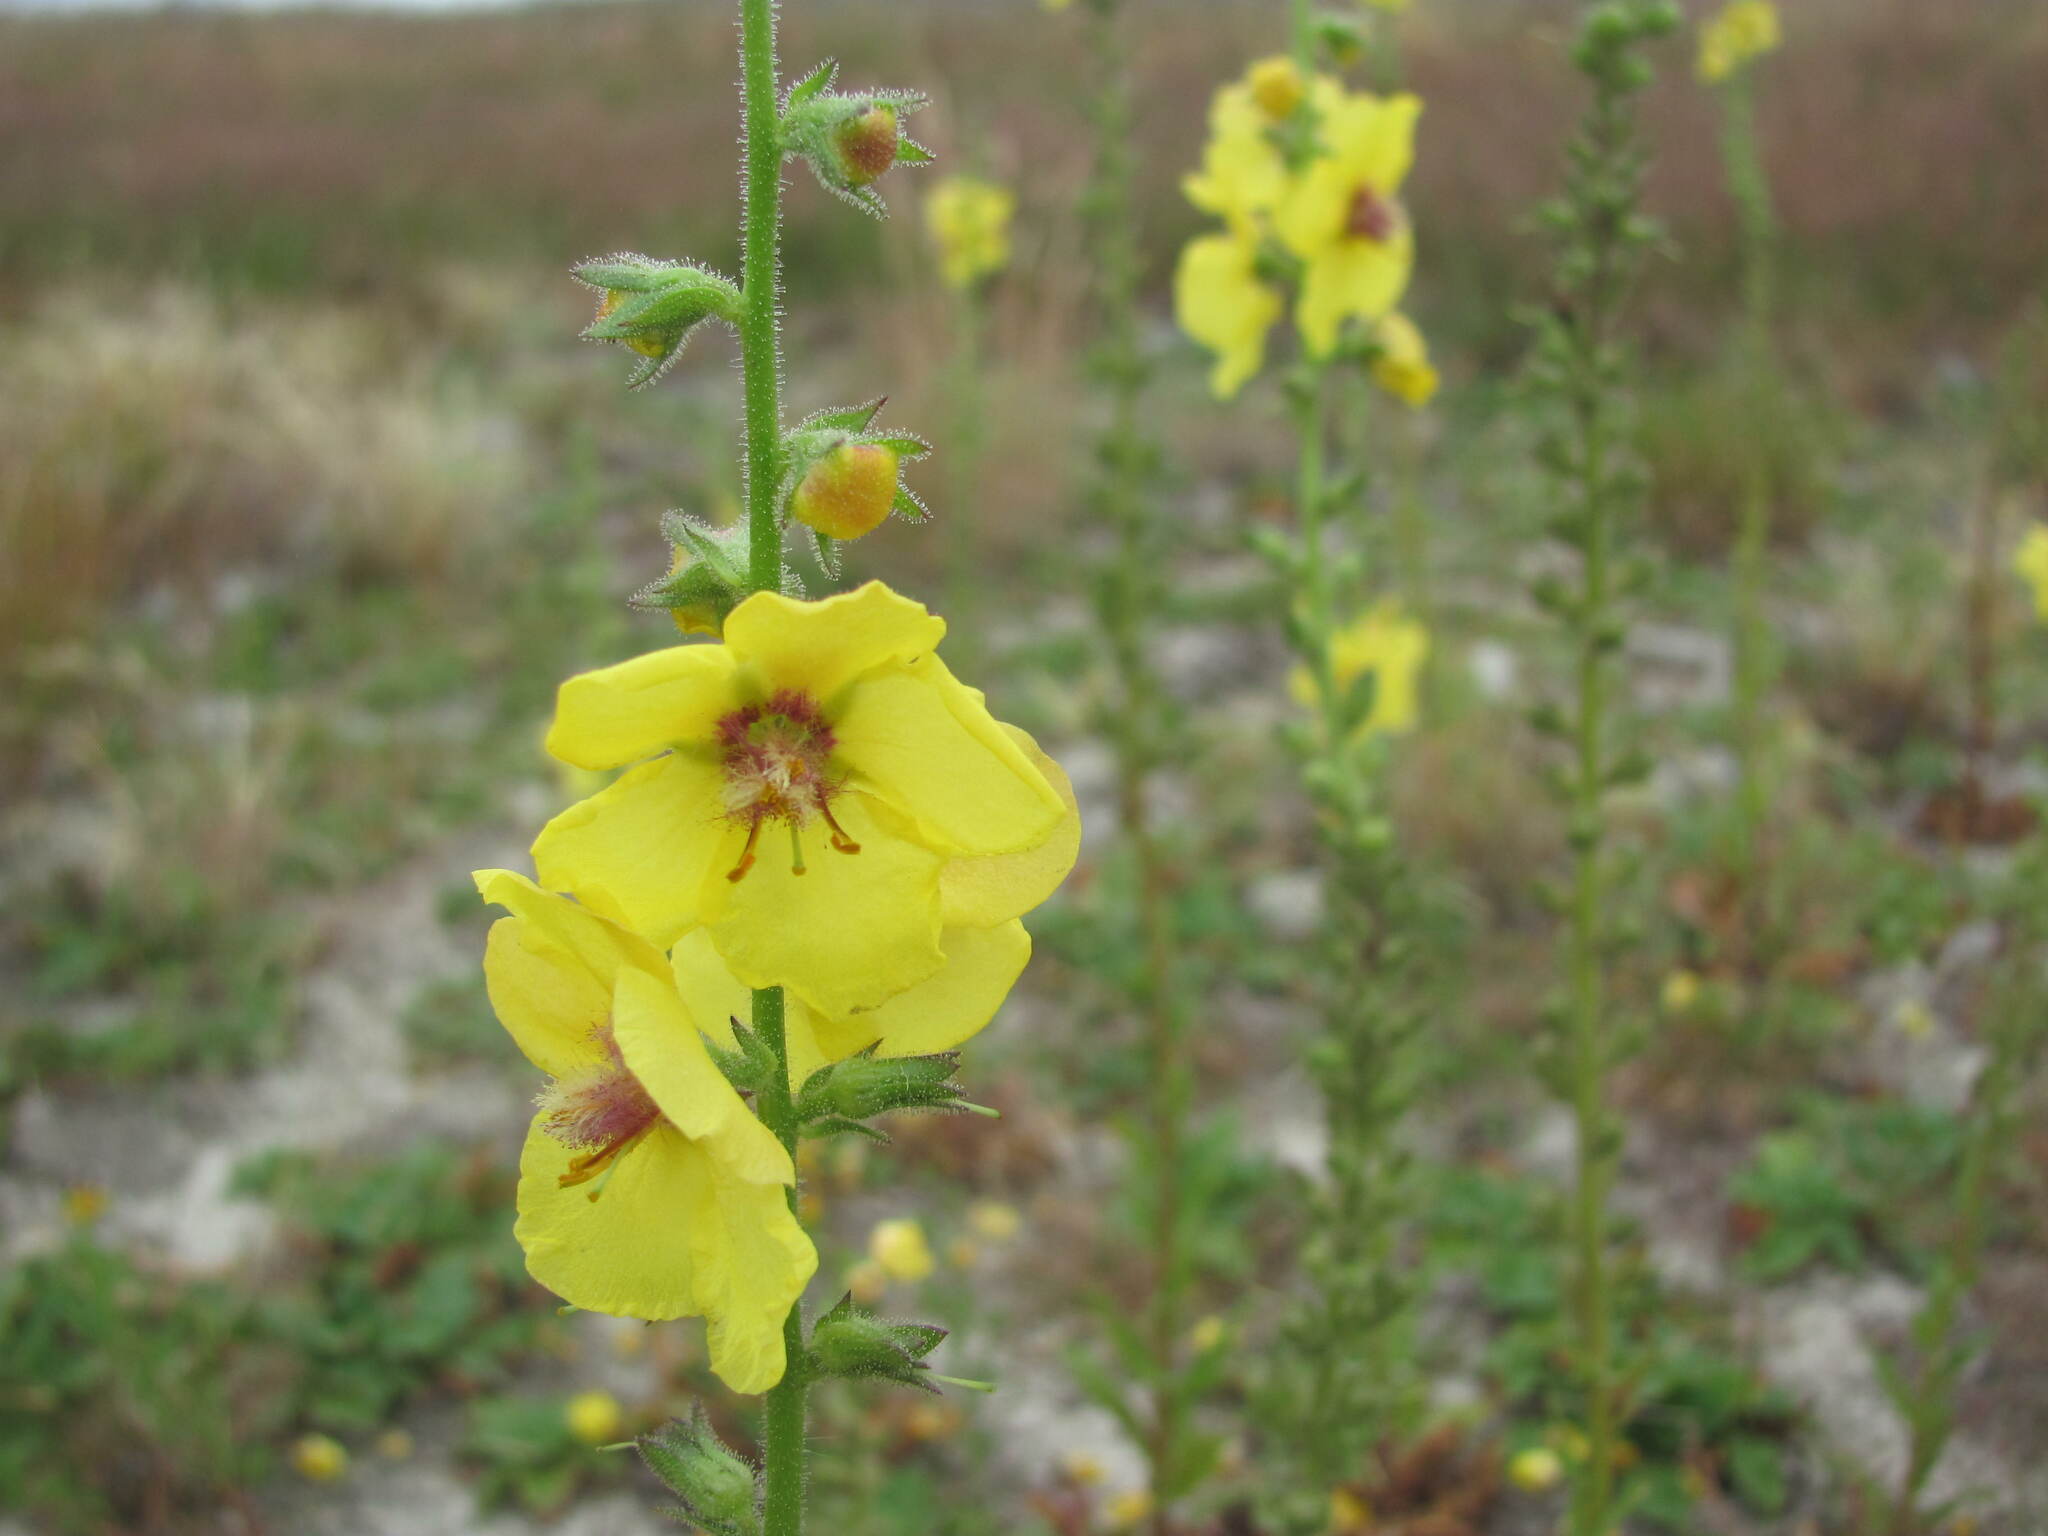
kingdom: Plantae
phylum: Tracheophyta
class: Magnoliopsida
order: Lamiales
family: Scrophulariaceae
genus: Verbascum
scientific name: Verbascum virgatum
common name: Twiggy mullein
